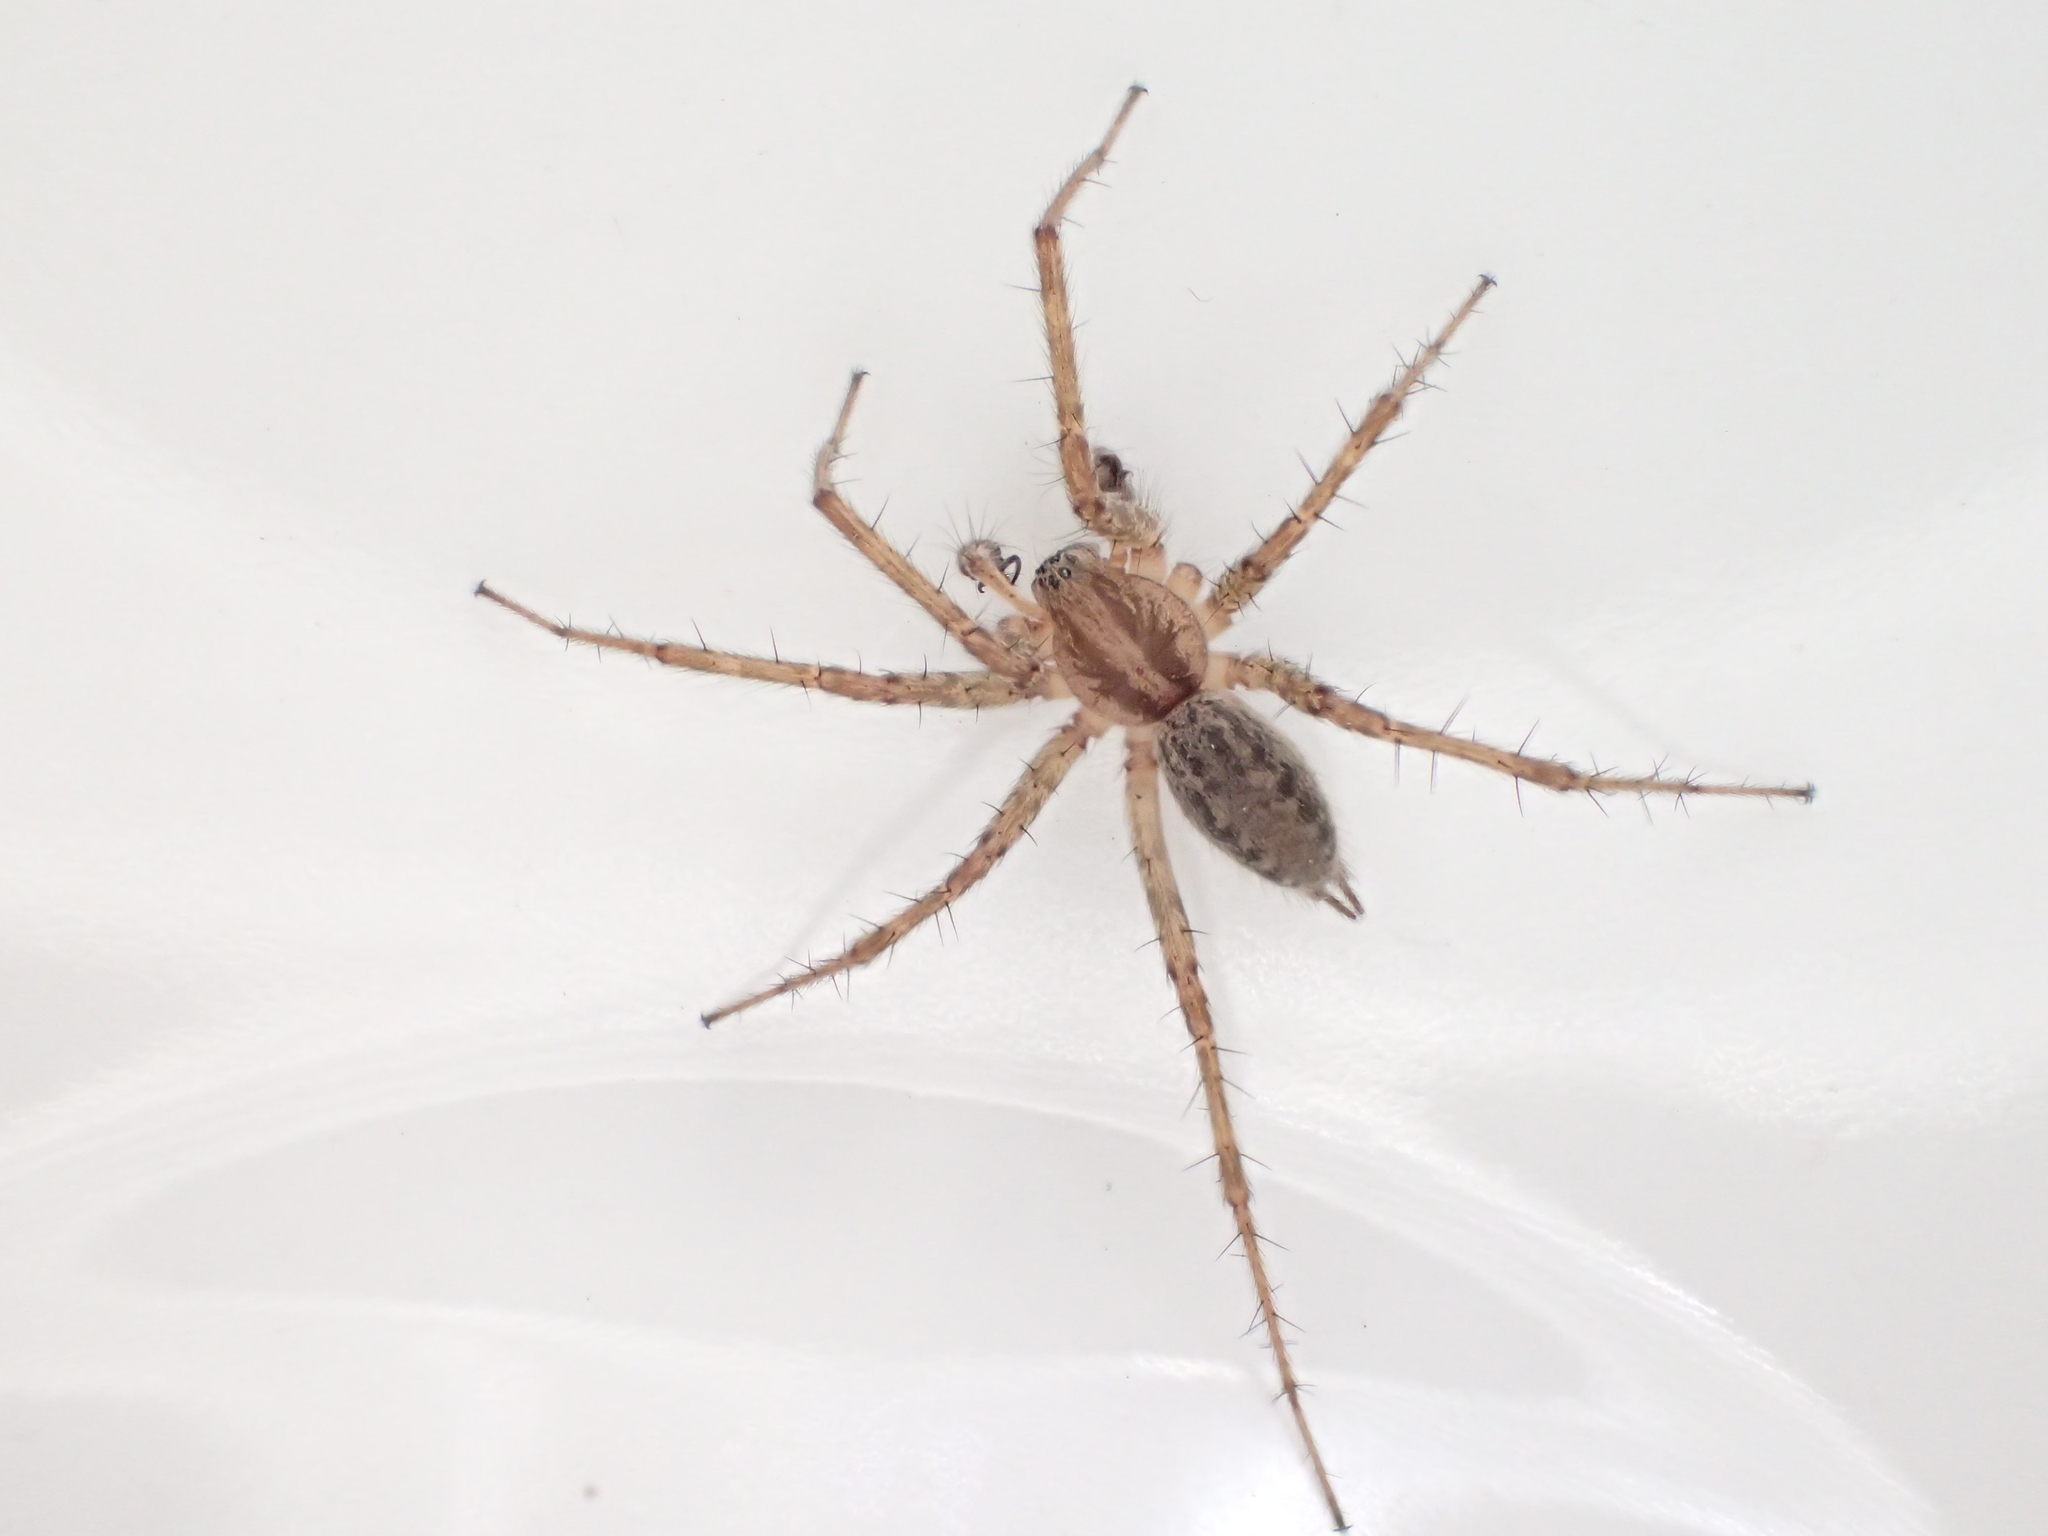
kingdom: Animalia
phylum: Arthropoda
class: Arachnida
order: Araneae
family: Agelenidae
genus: Agelenopsis
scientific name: Agelenopsis utahana
